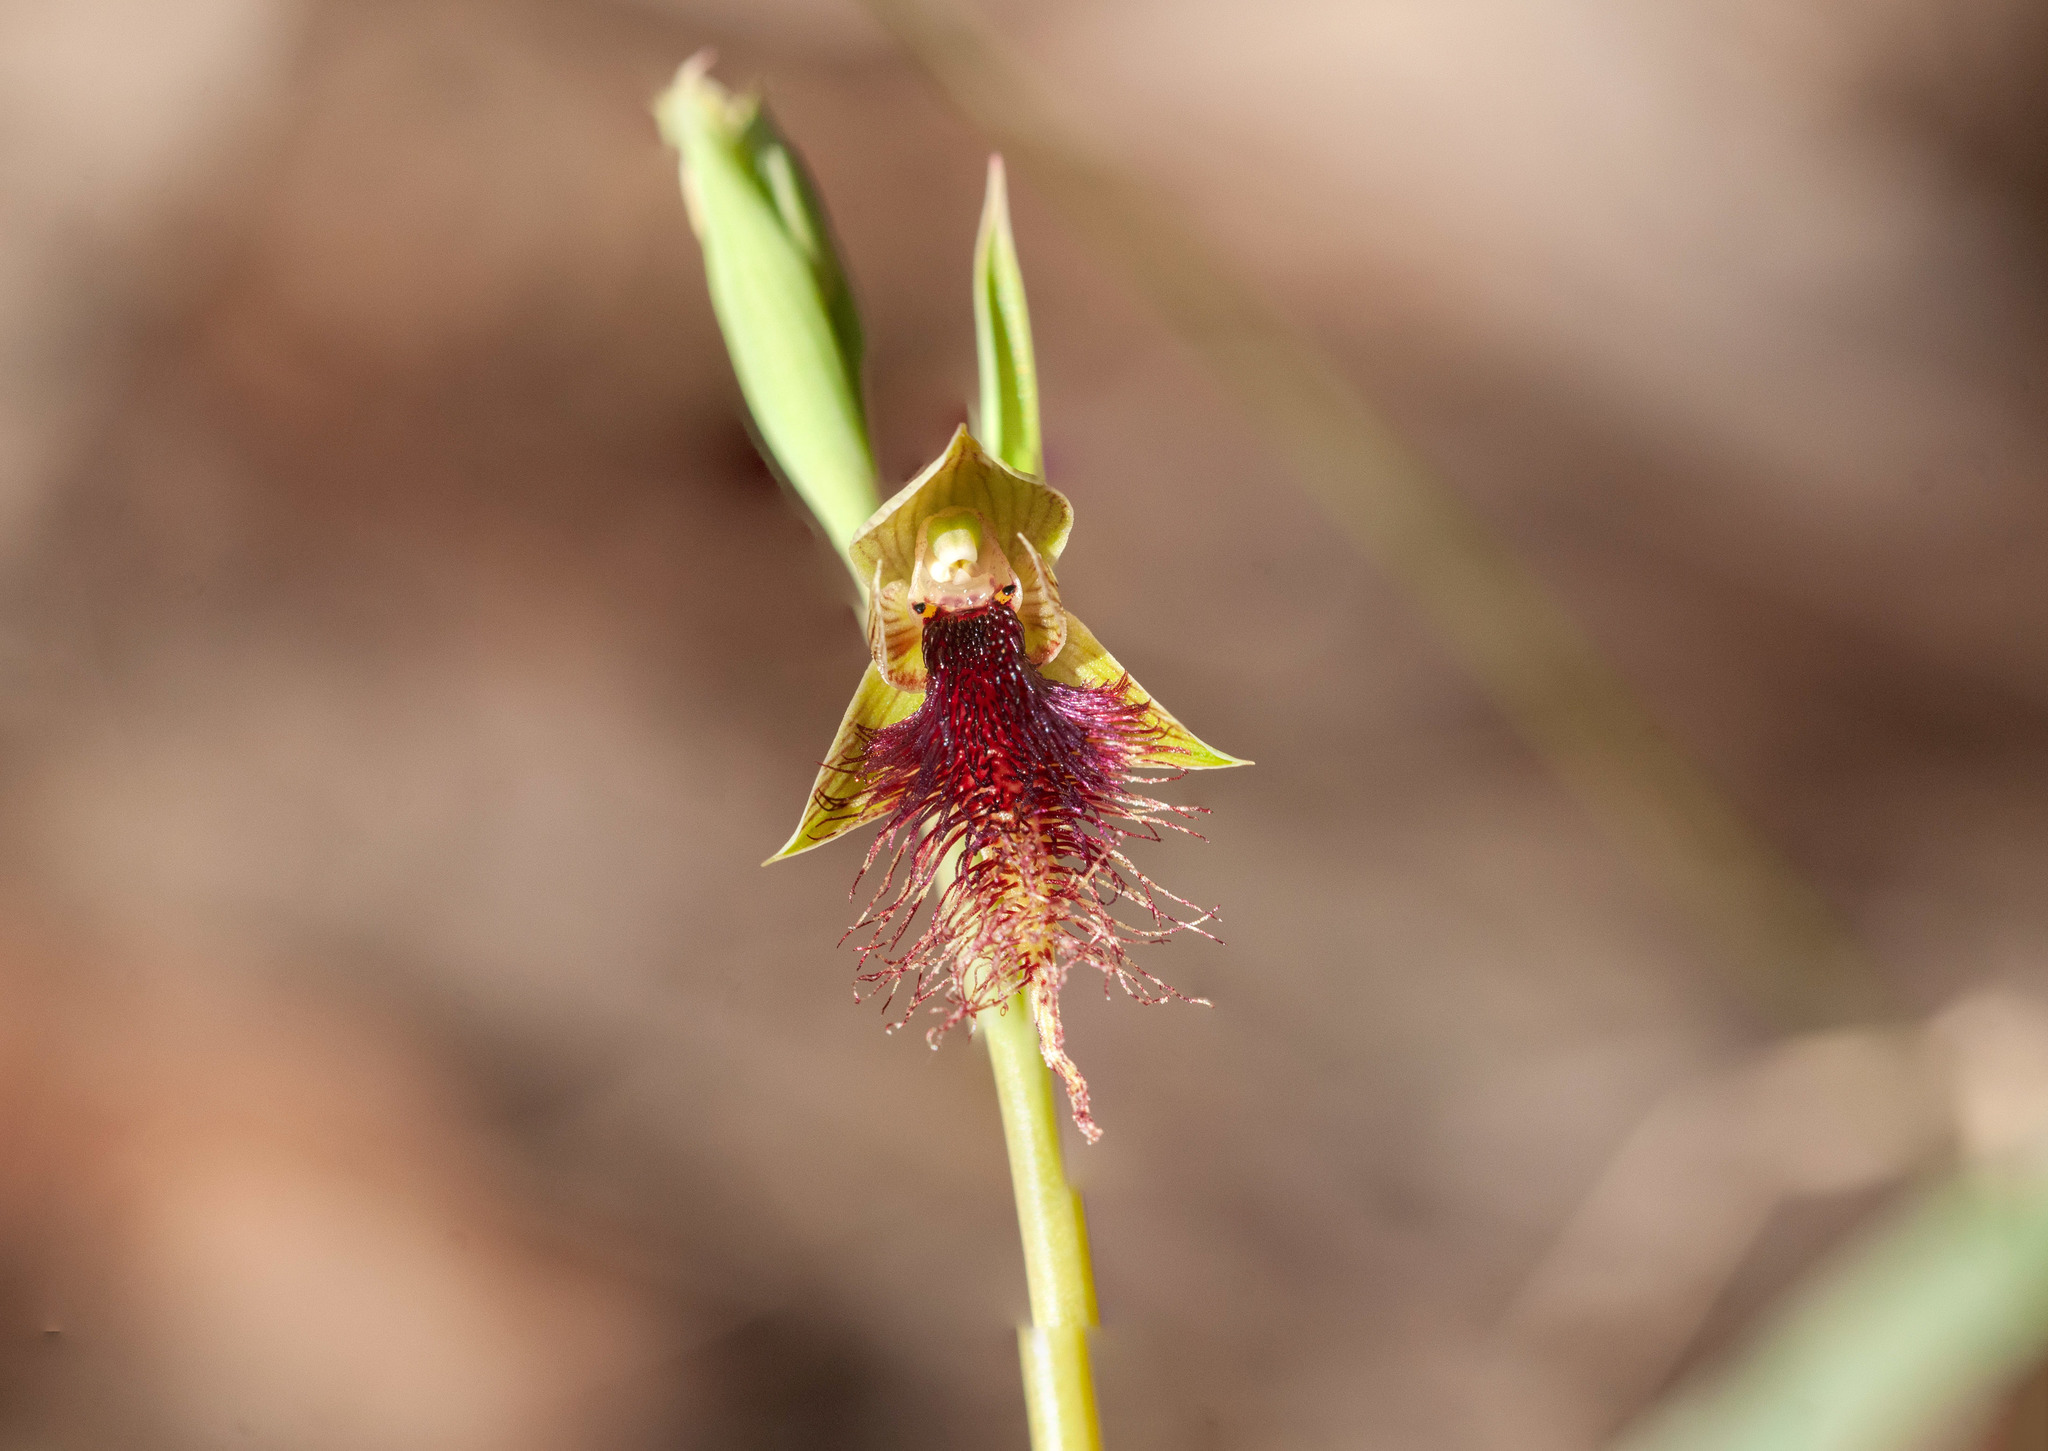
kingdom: Plantae
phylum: Tracheophyta
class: Liliopsida
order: Asparagales
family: Orchidaceae
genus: Calochilus
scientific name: Calochilus robertsonii
